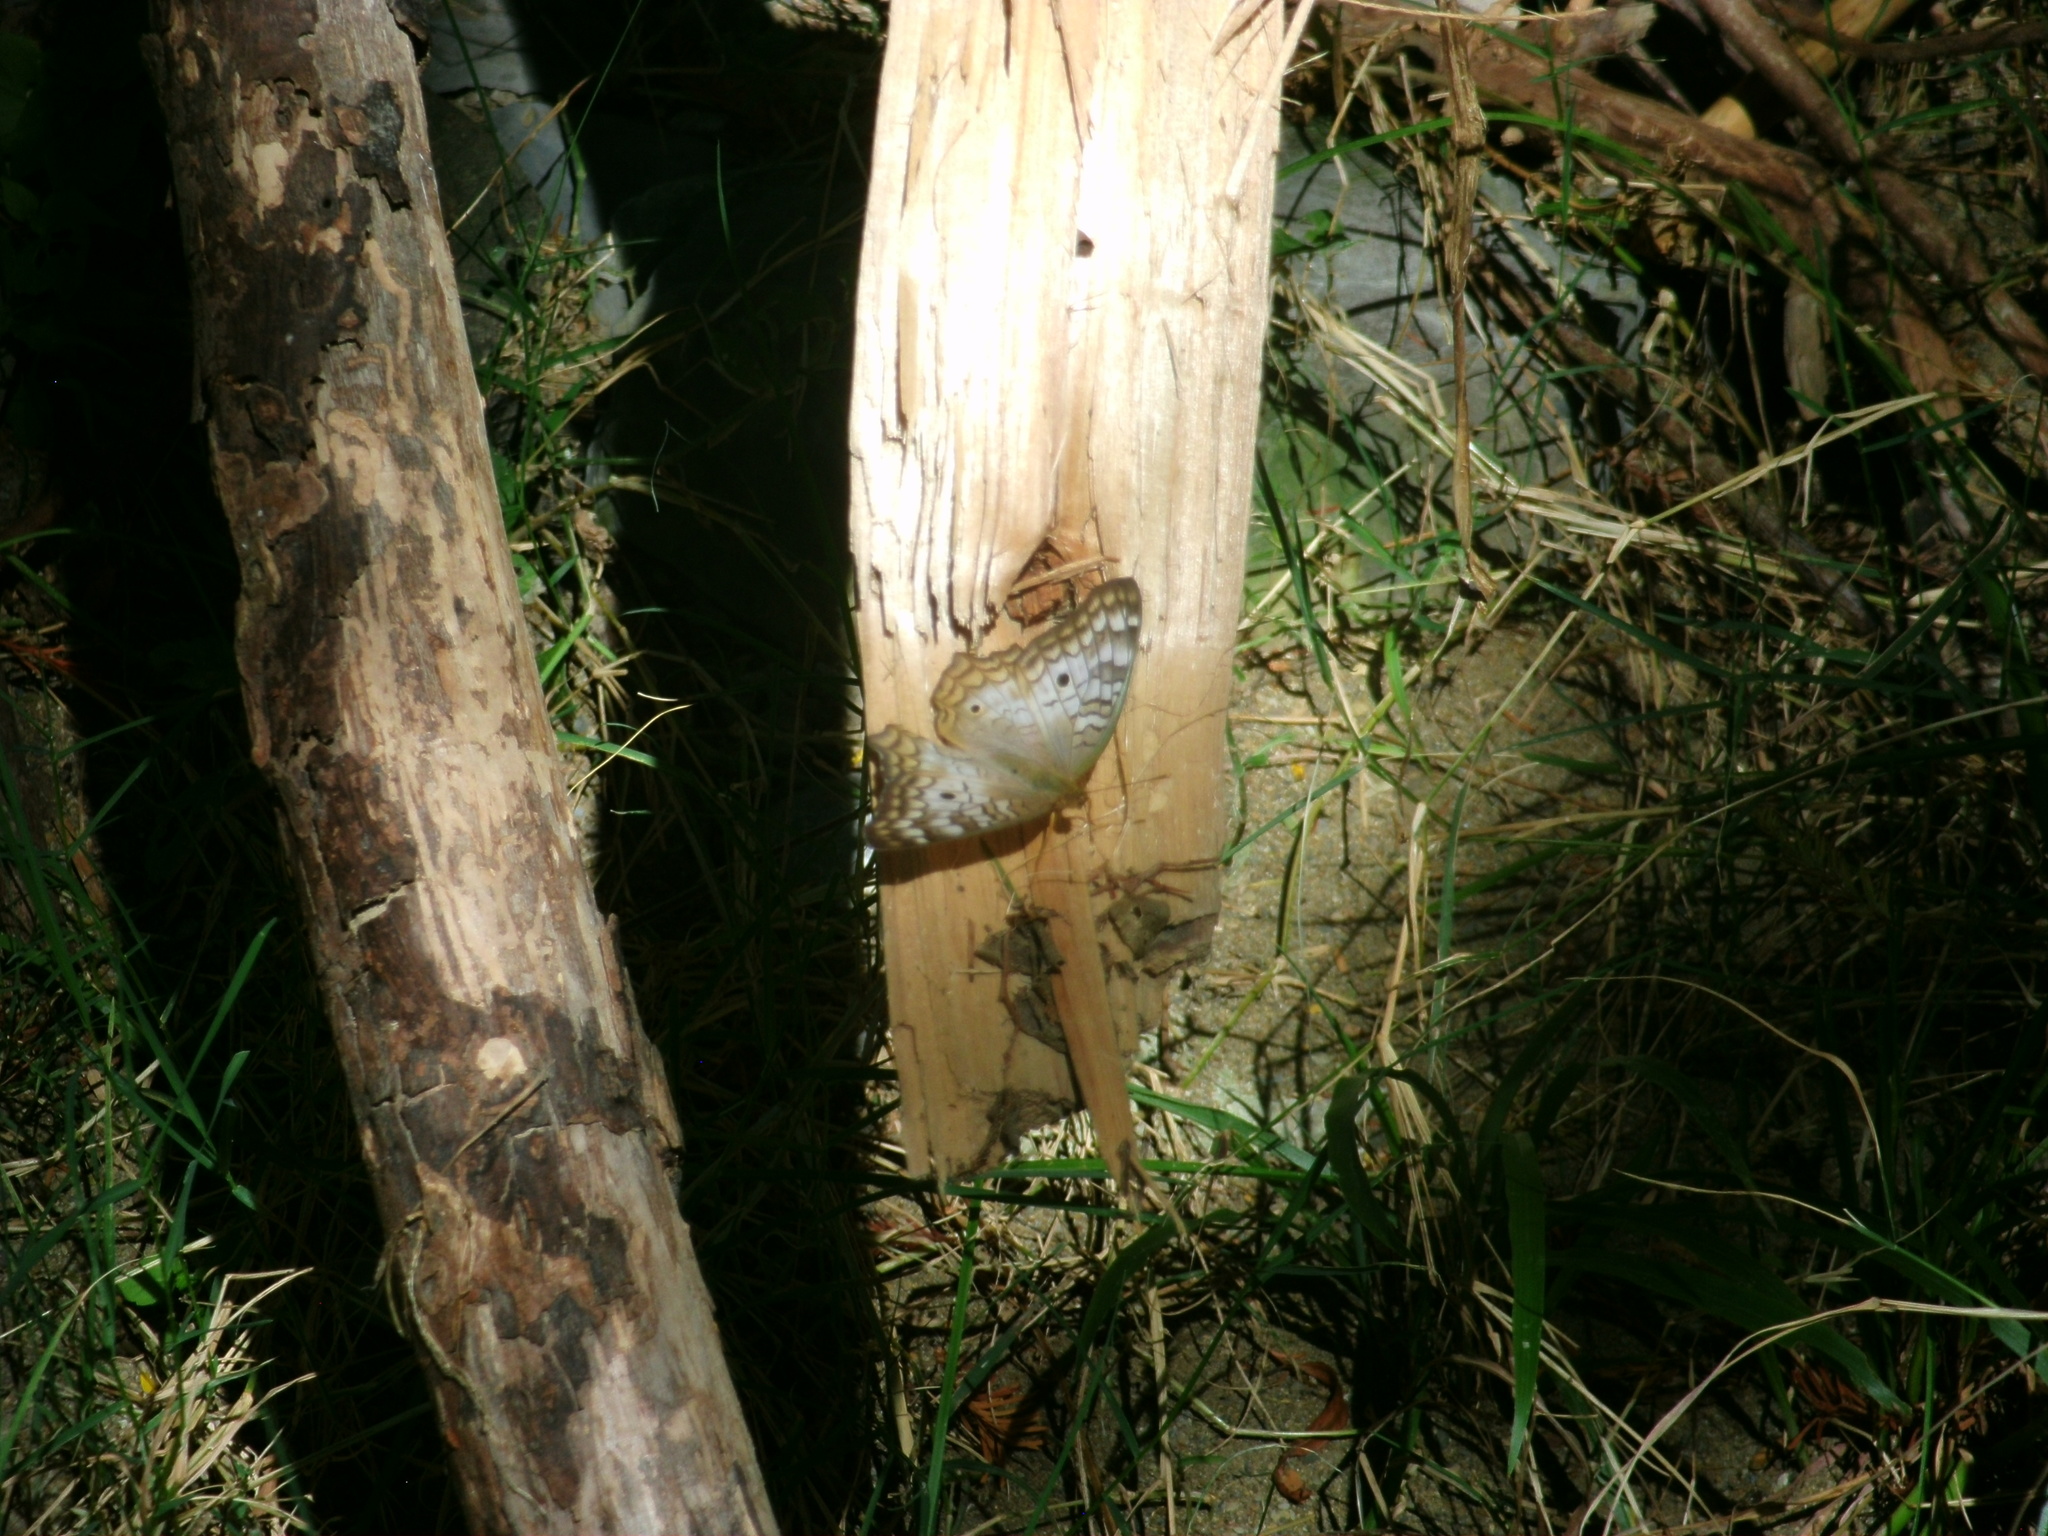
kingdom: Animalia
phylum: Arthropoda
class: Insecta
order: Lepidoptera
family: Nymphalidae
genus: Anartia
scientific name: Anartia jatrophae
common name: White peacock
